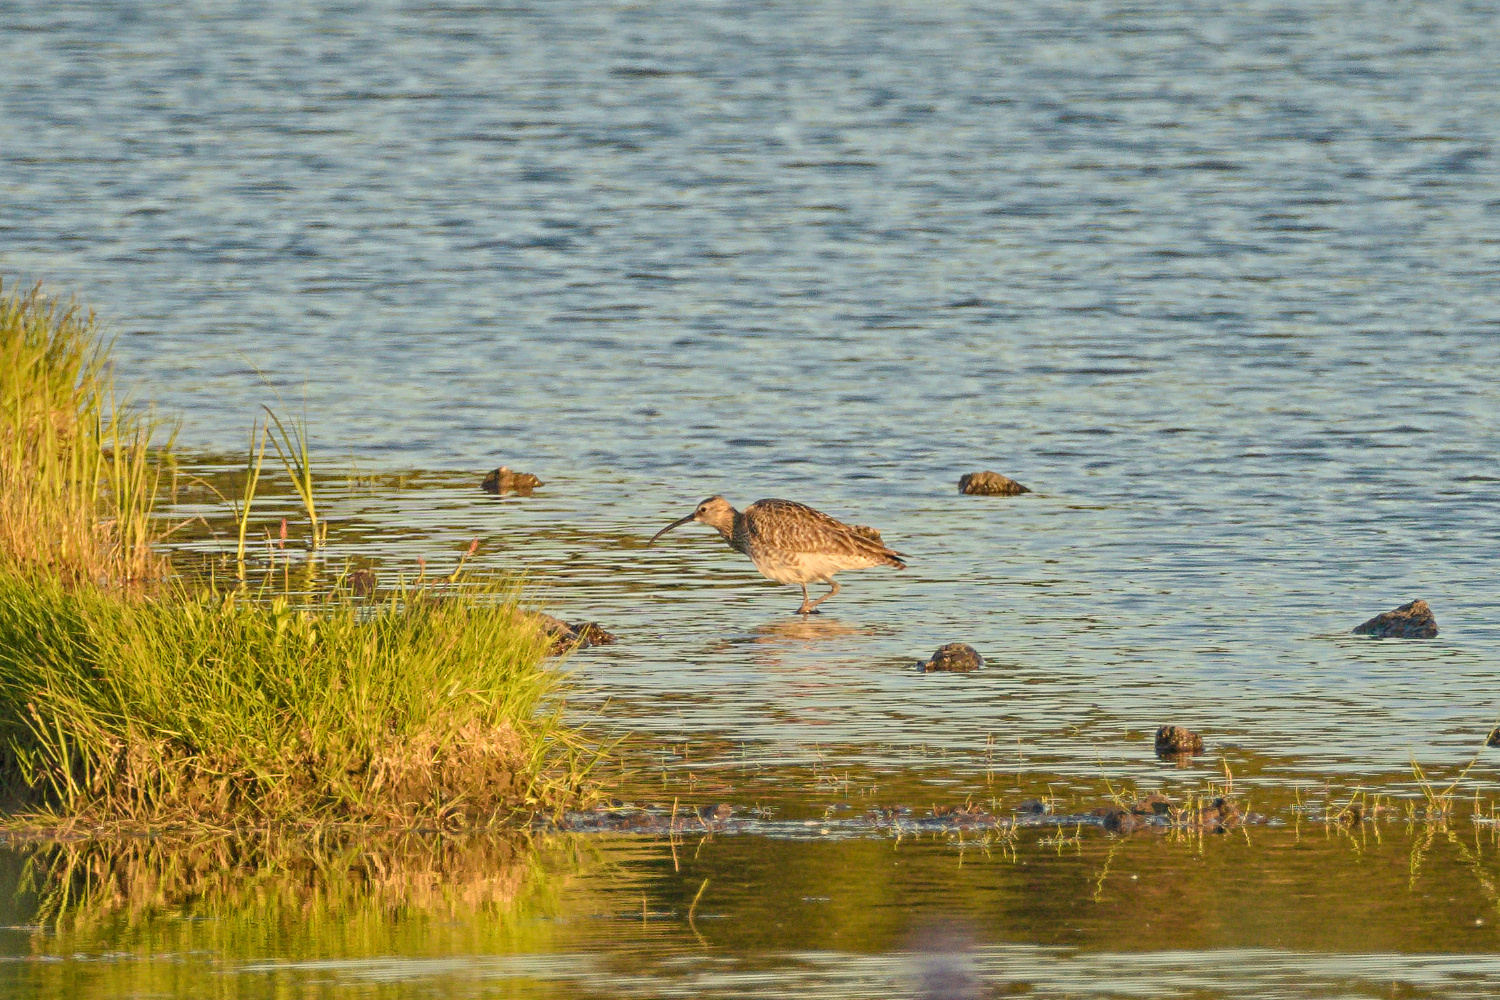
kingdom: Animalia
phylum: Chordata
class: Aves
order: Charadriiformes
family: Scolopacidae
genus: Numenius
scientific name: Numenius phaeopus
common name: Whimbrel
